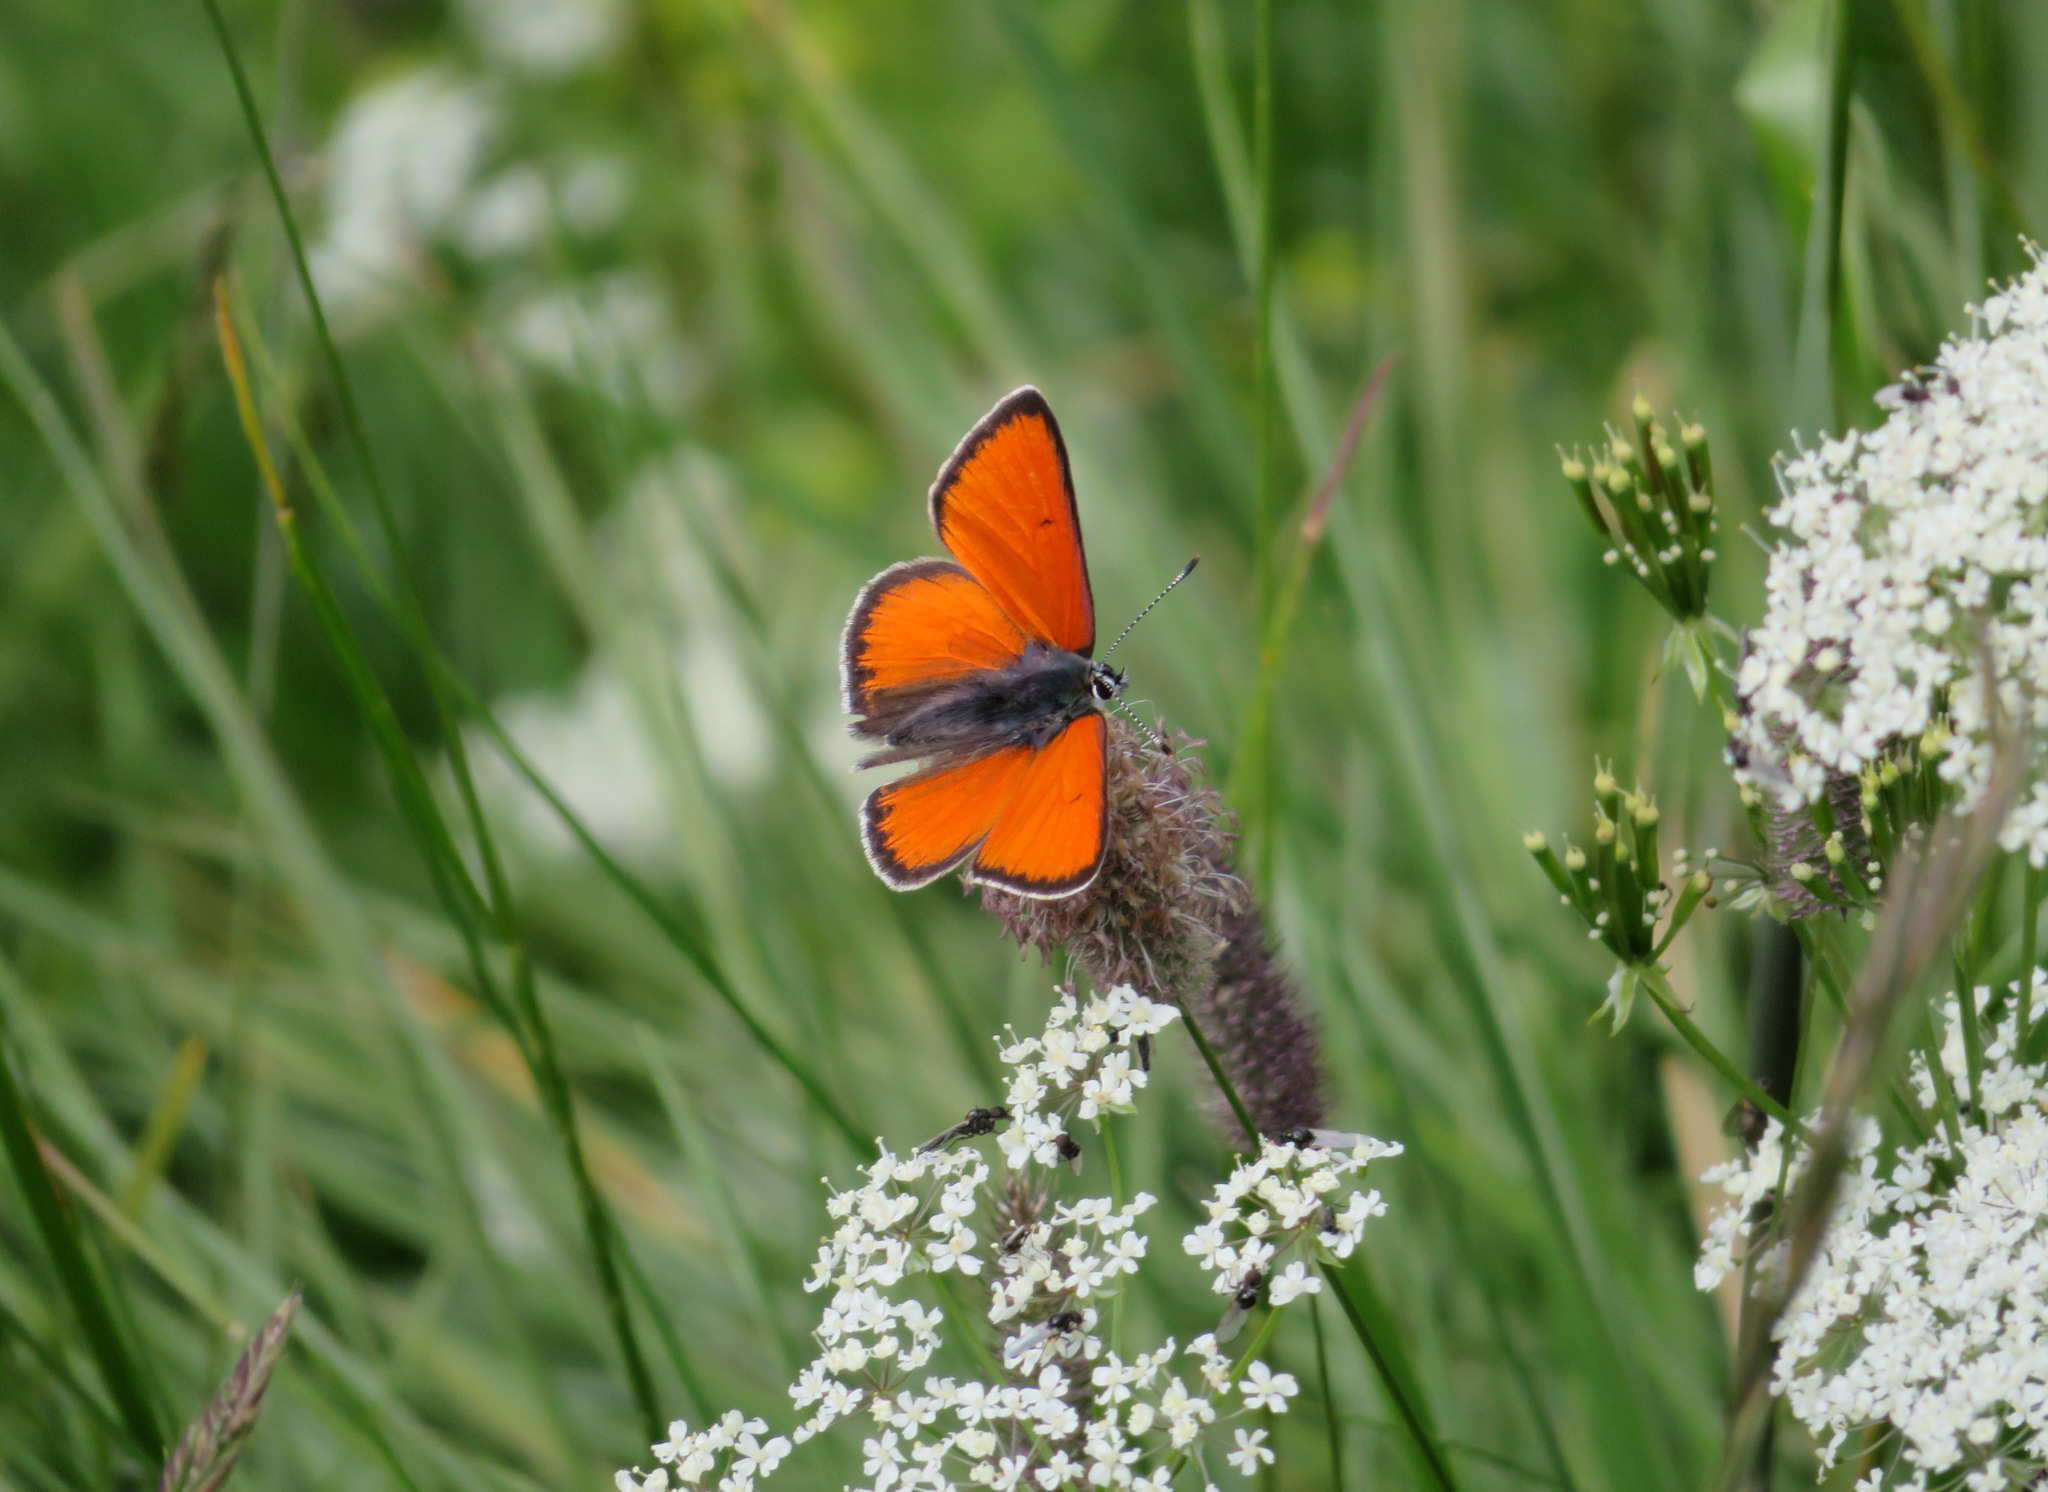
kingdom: Animalia
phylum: Arthropoda
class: Insecta
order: Lepidoptera
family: Lycaenidae
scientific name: Lycaenidae
